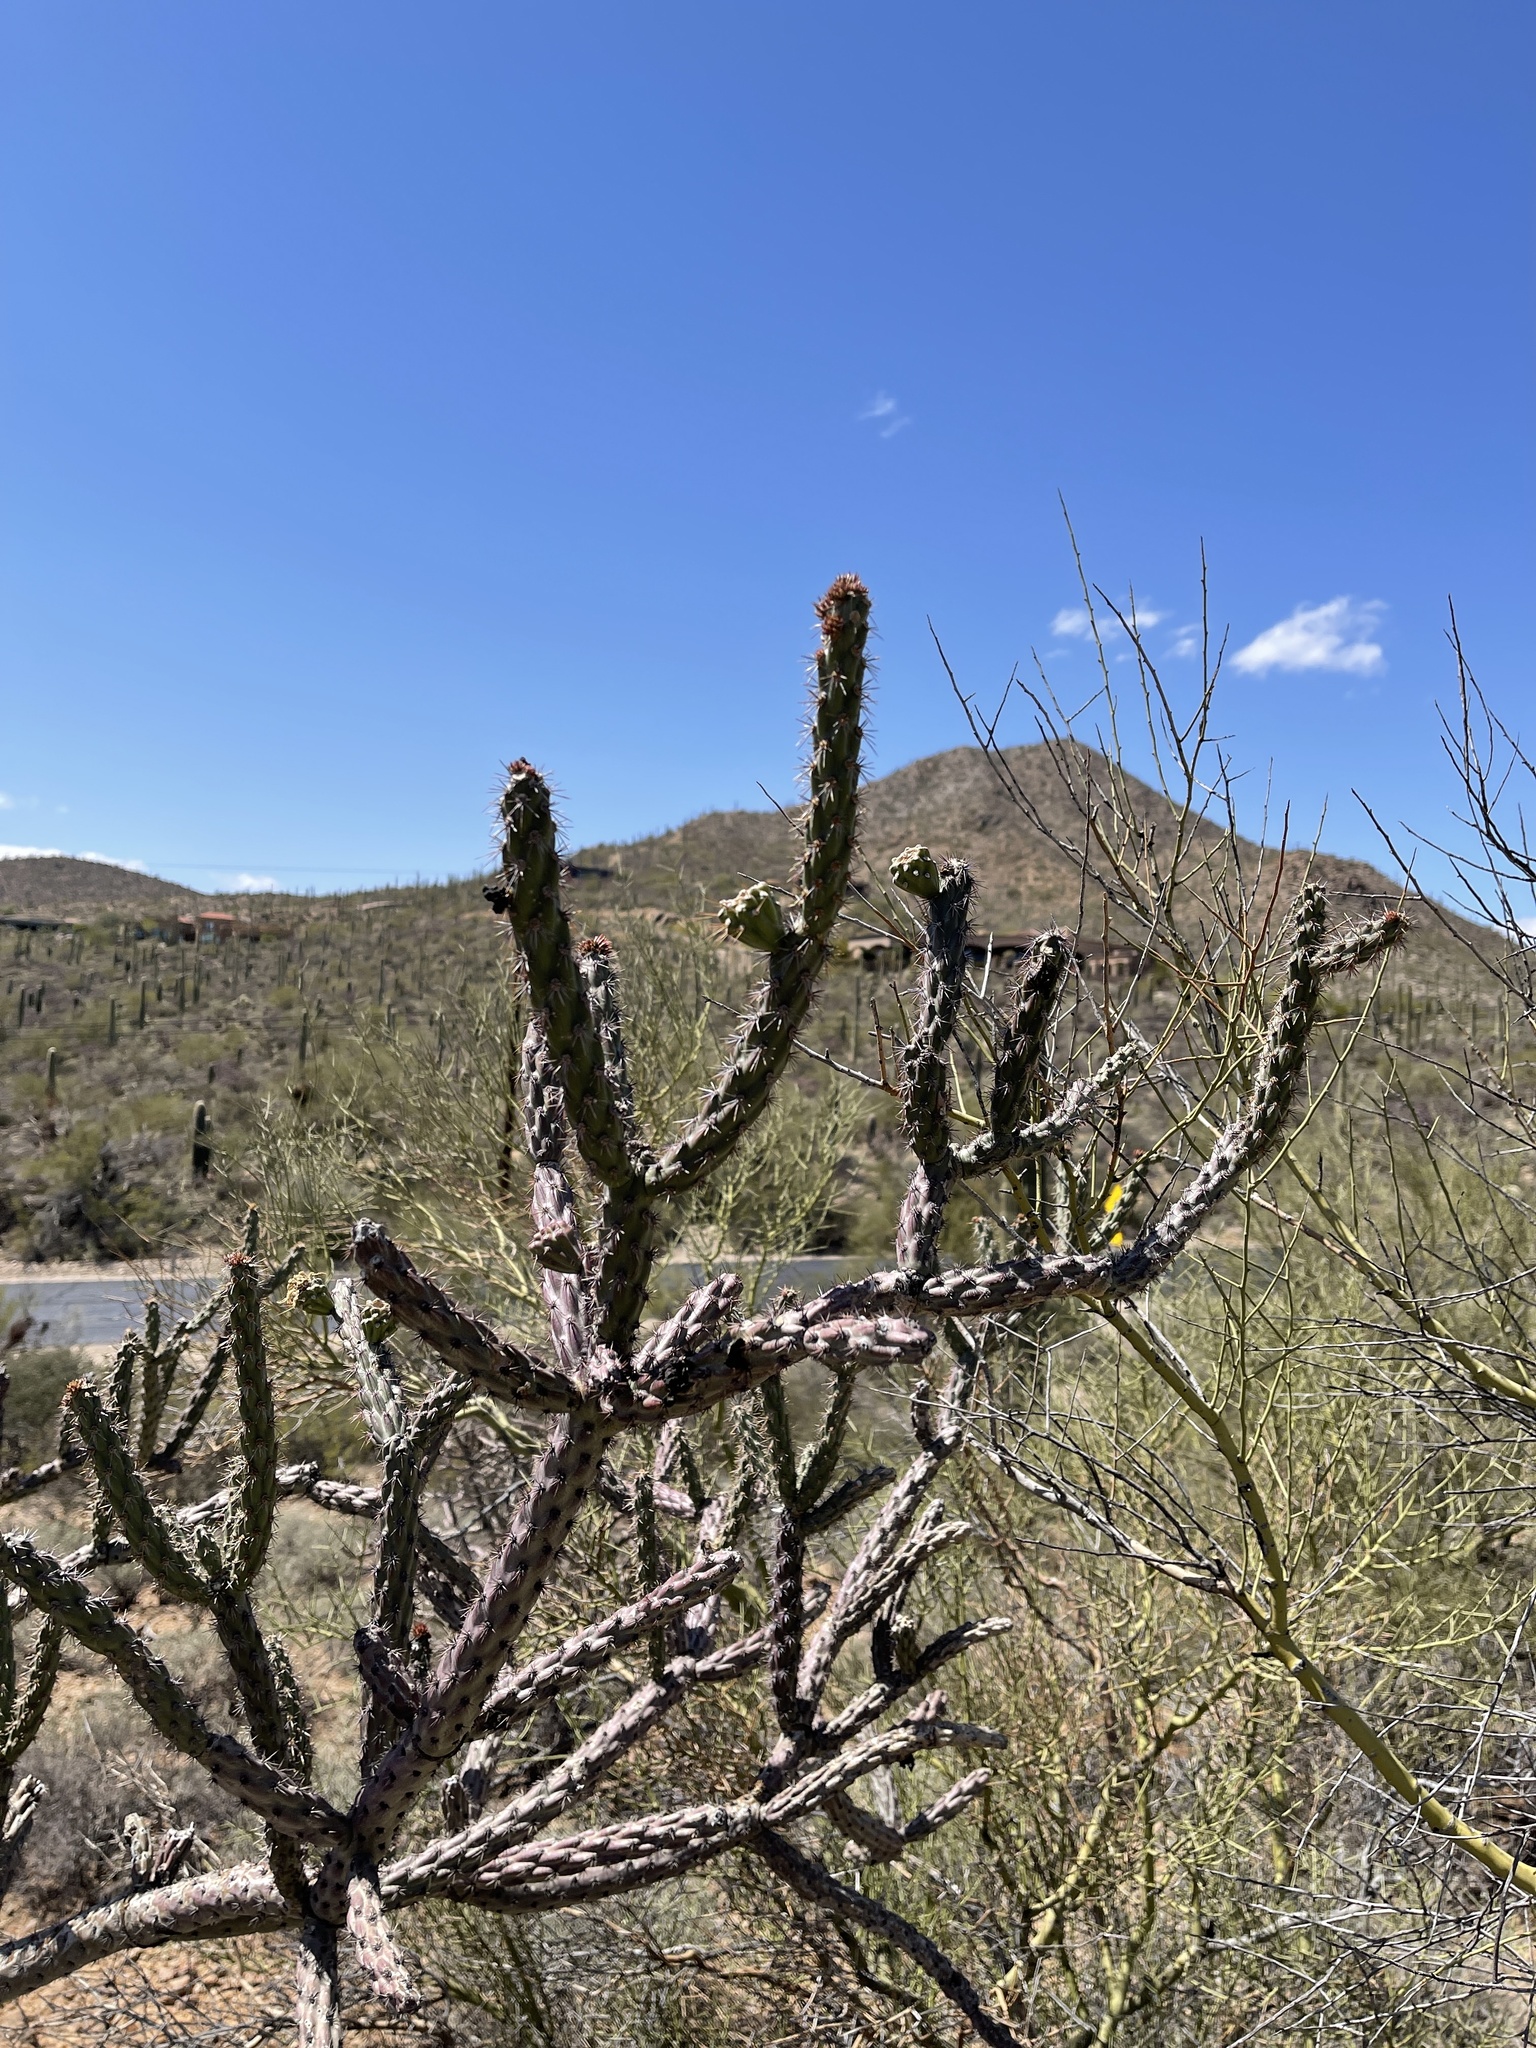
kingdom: Plantae
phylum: Tracheophyta
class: Magnoliopsida
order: Caryophyllales
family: Cactaceae
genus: Cylindropuntia
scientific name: Cylindropuntia acanthocarpa
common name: Buckhorn cholla
